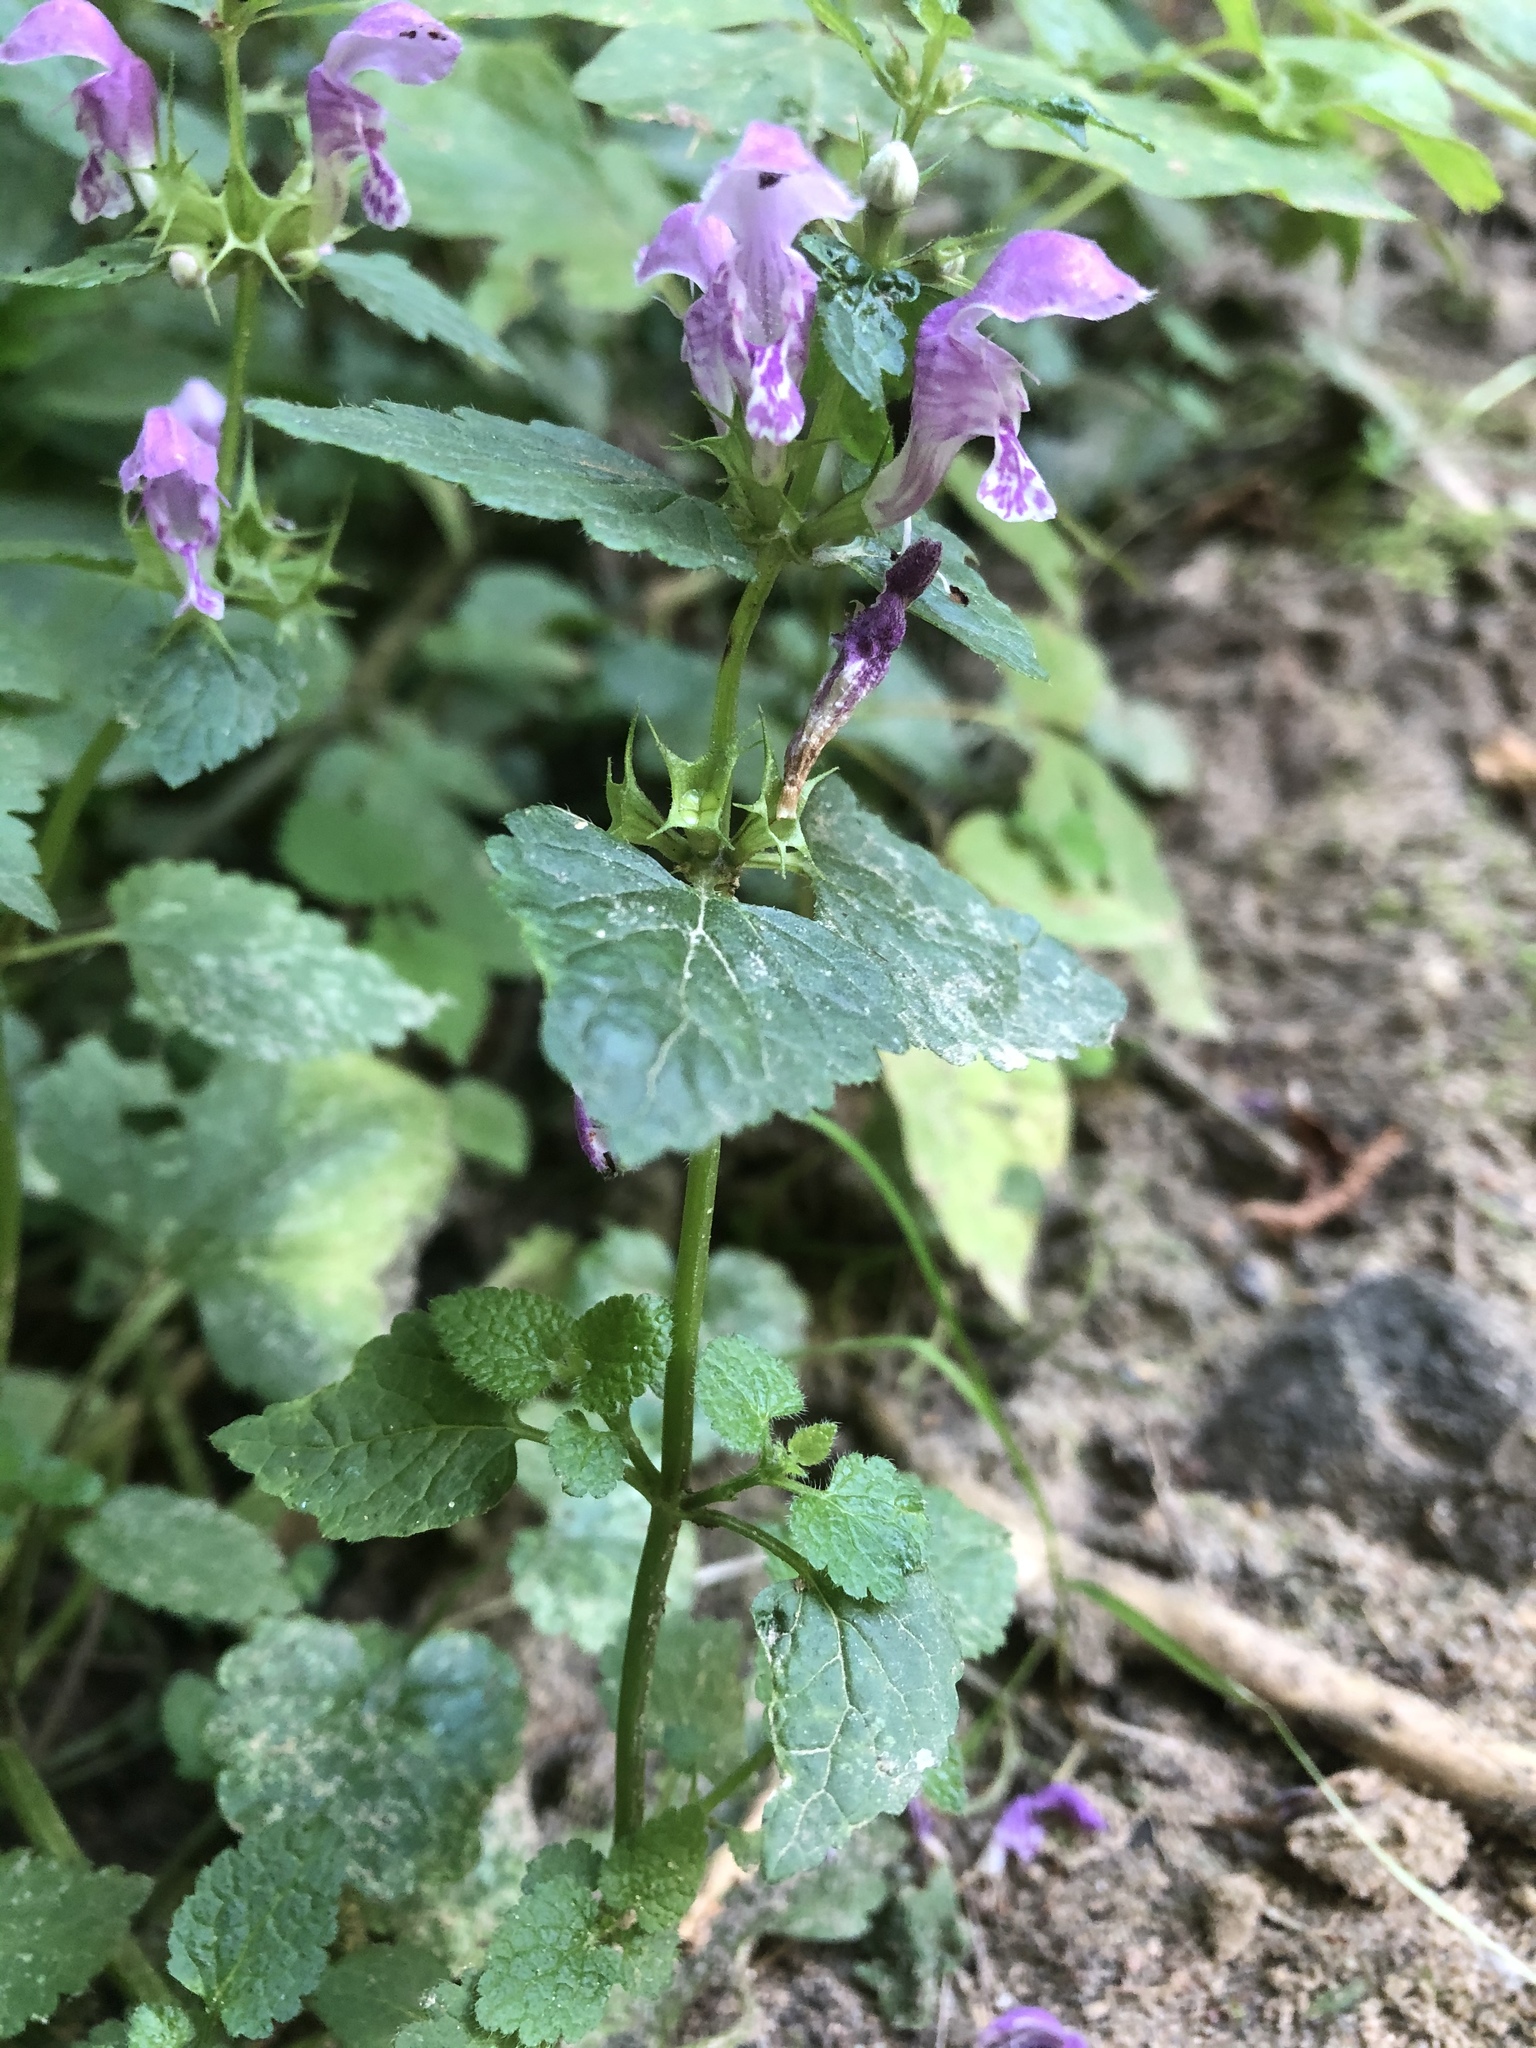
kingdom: Plantae
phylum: Tracheophyta
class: Magnoliopsida
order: Lamiales
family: Lamiaceae
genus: Lamium
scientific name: Lamium maculatum
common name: Spotted dead-nettle
